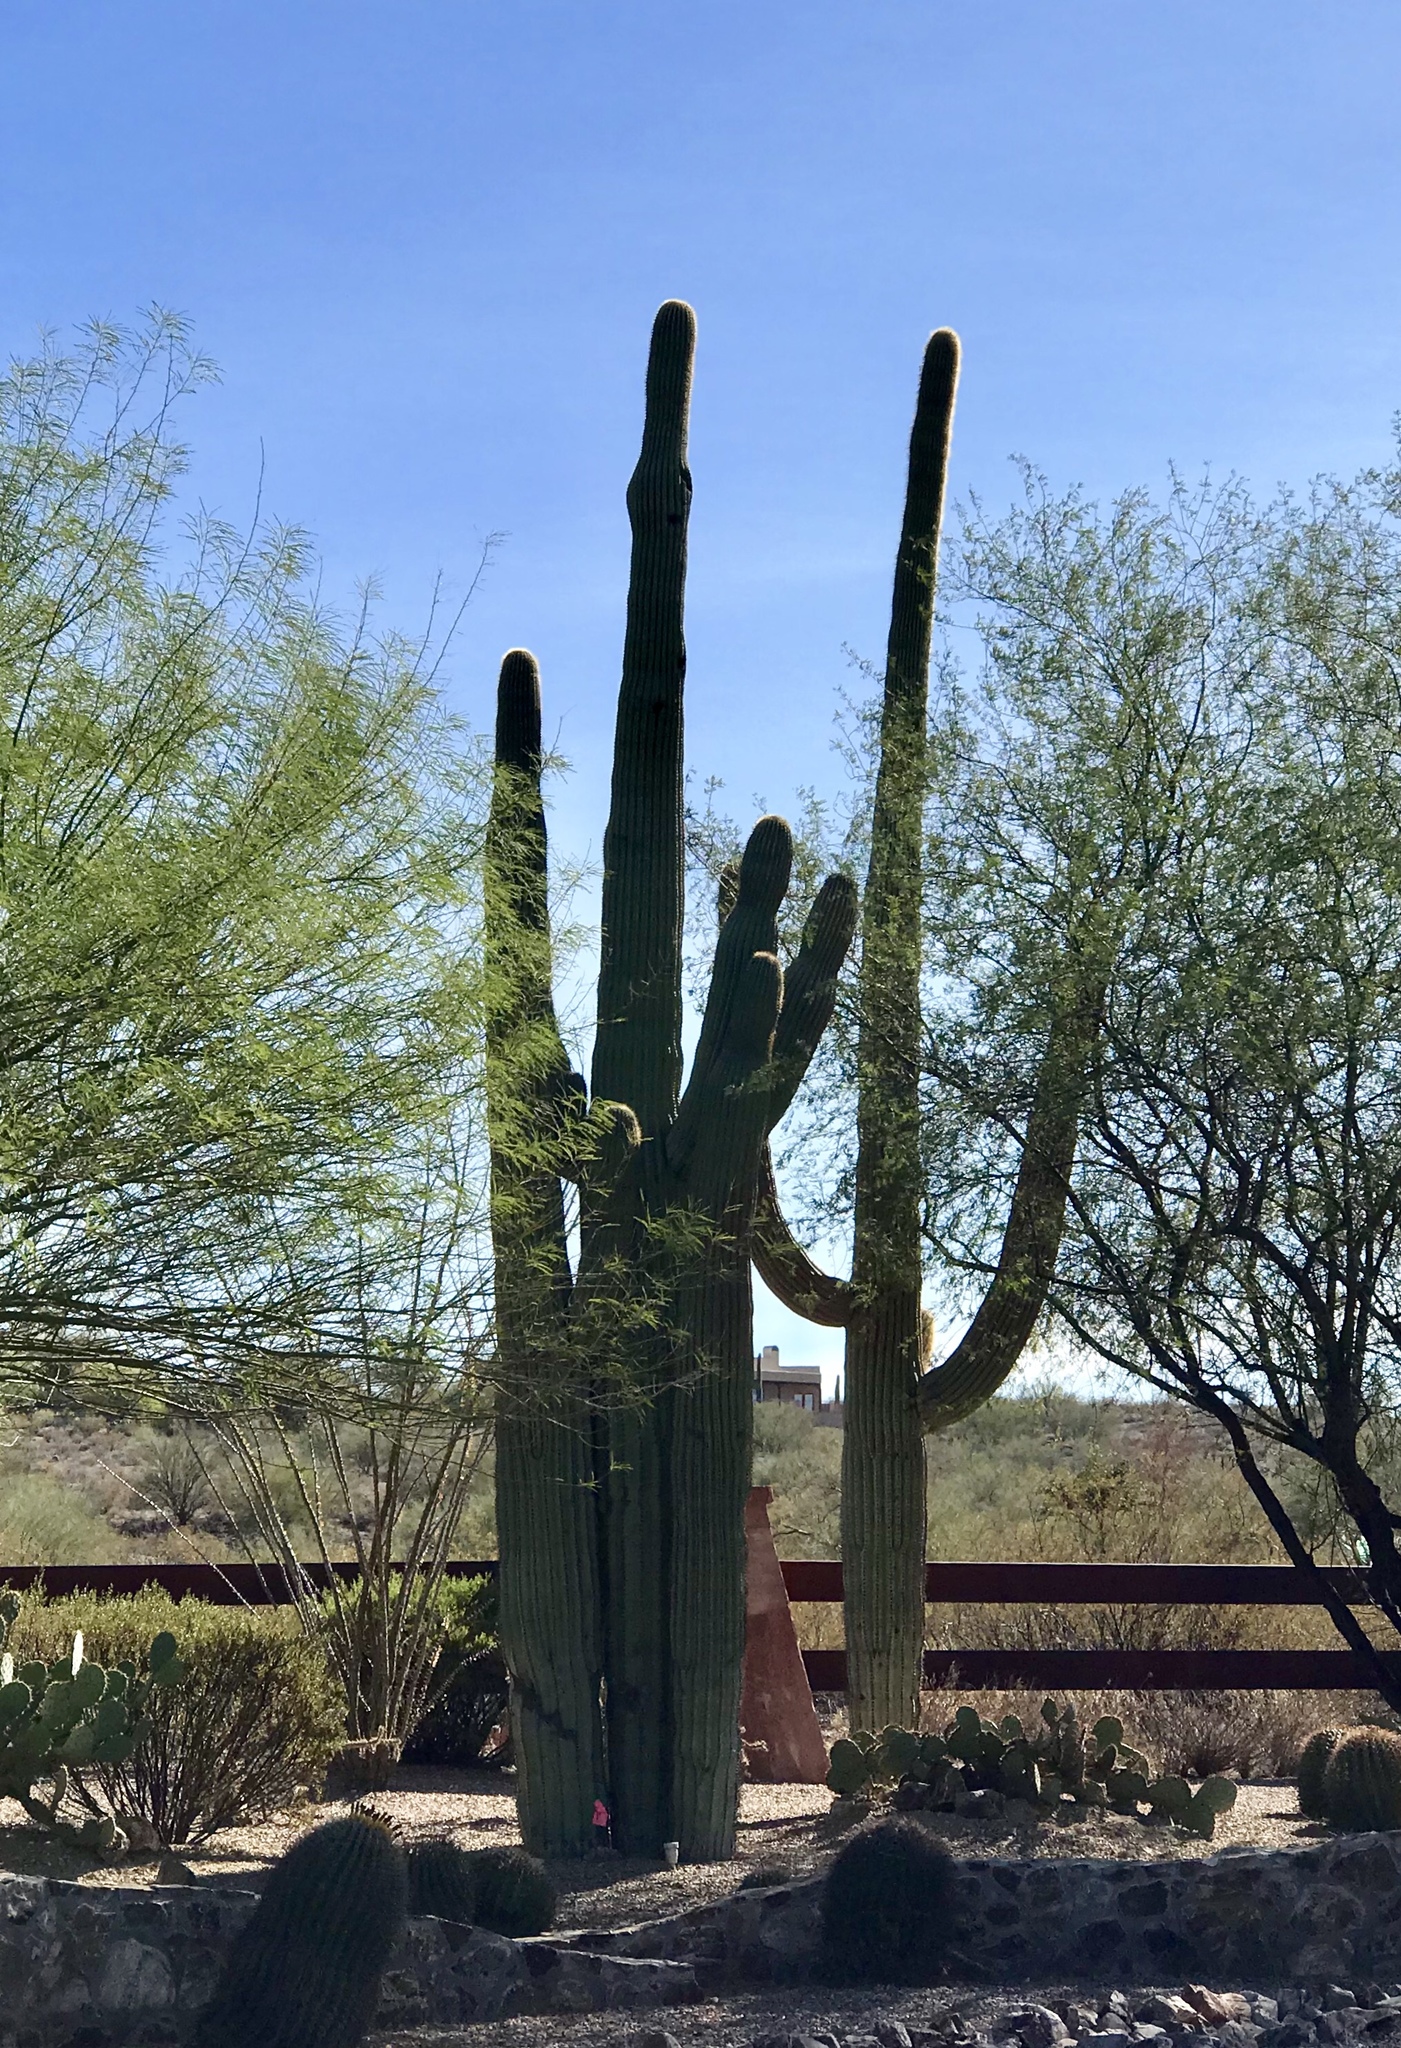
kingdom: Plantae
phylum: Tracheophyta
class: Magnoliopsida
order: Caryophyllales
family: Cactaceae
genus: Carnegiea
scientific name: Carnegiea gigantea
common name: Saguaro
